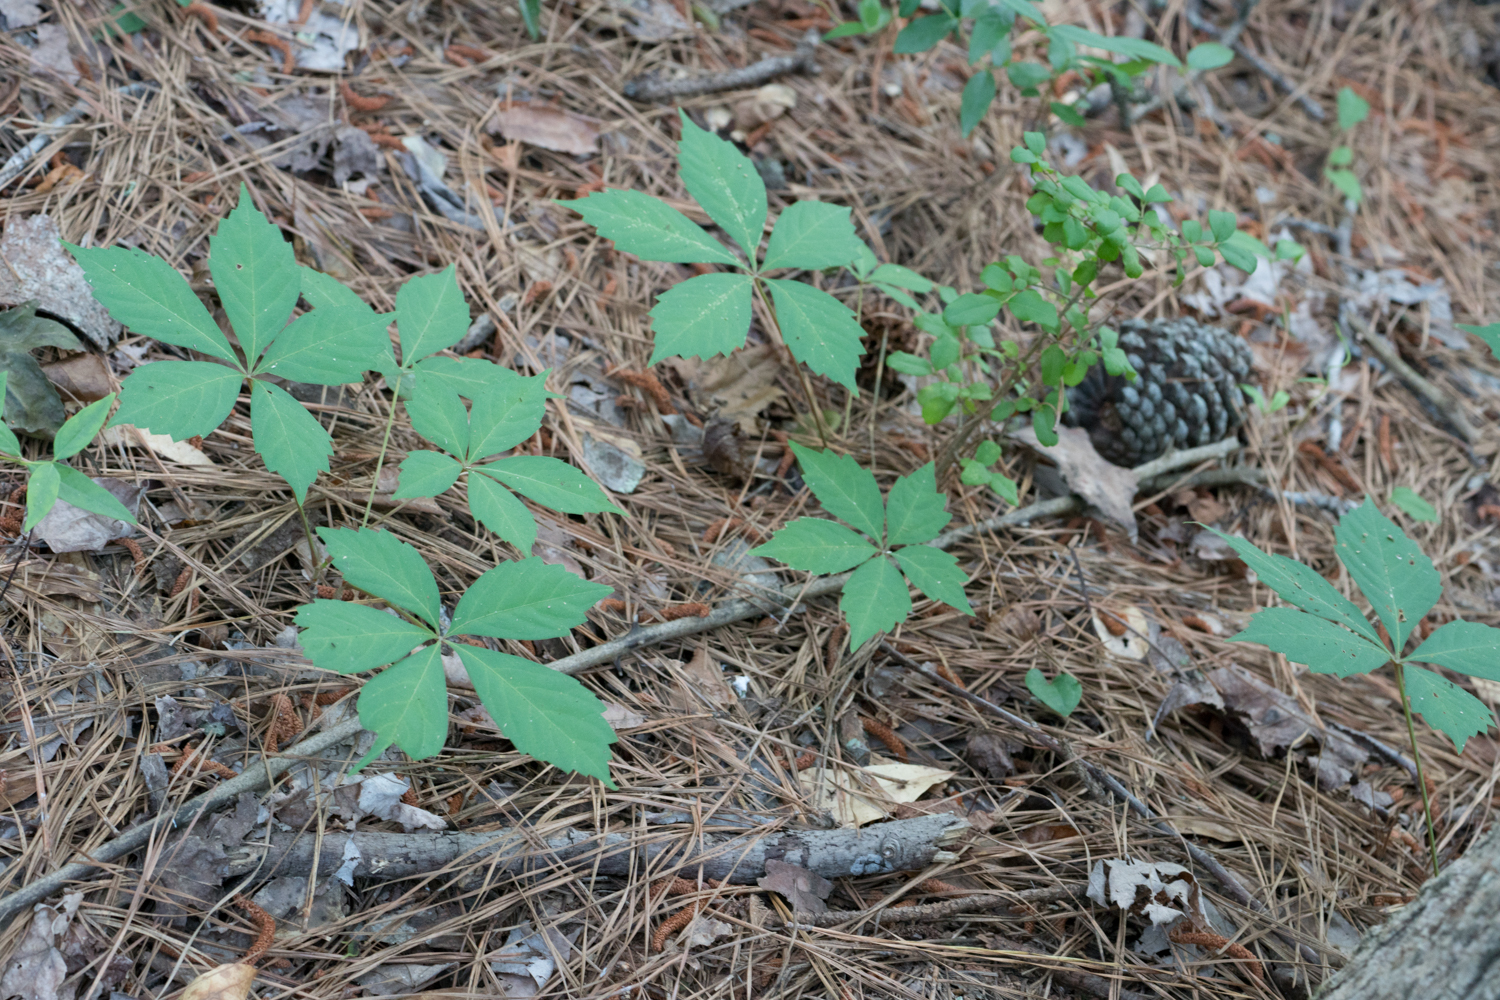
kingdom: Plantae
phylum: Tracheophyta
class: Magnoliopsida
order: Vitales
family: Vitaceae
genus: Parthenocissus
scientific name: Parthenocissus quinquefolia
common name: Virginia-creeper
